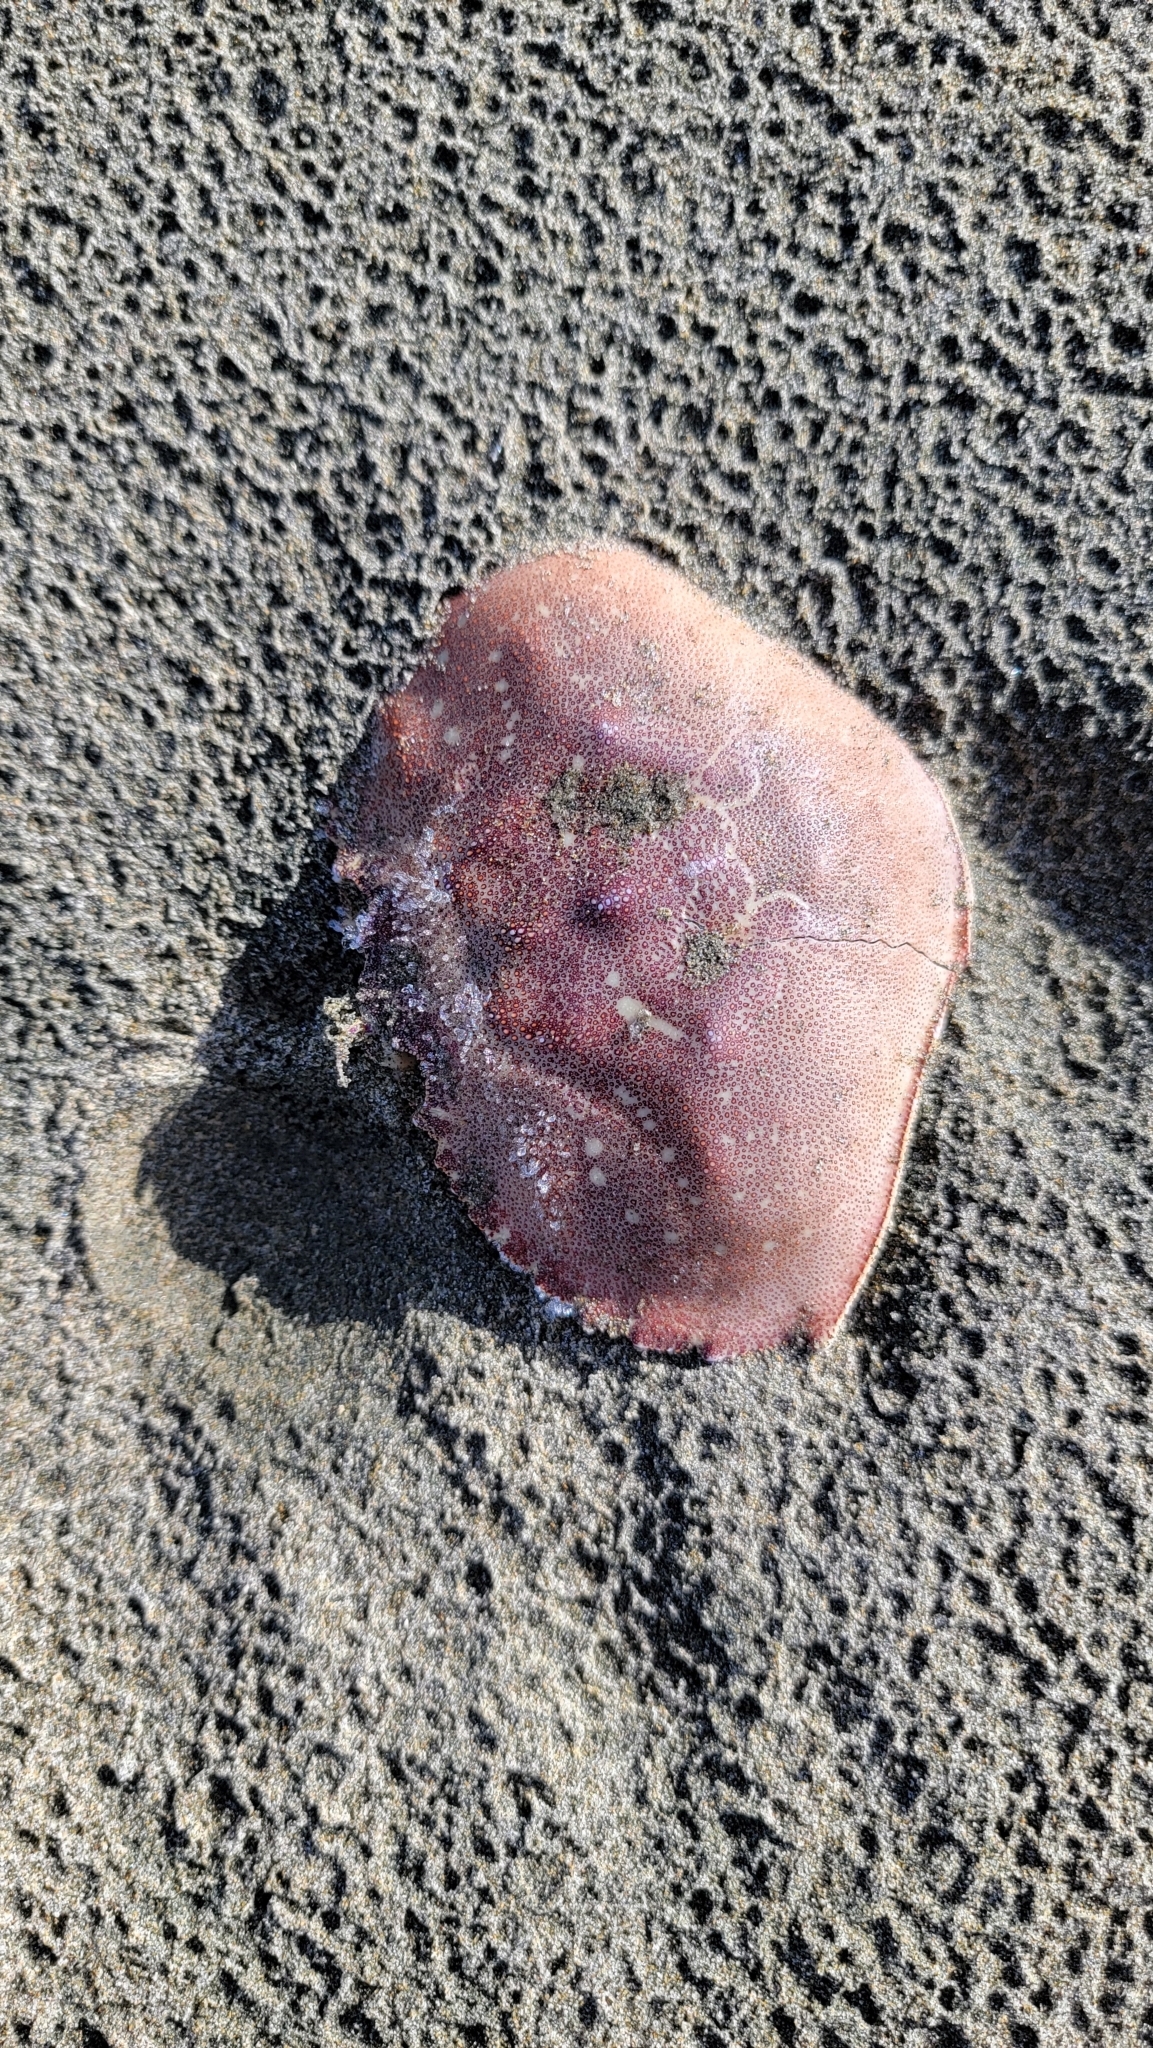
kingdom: Animalia
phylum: Arthropoda
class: Malacostraca
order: Decapoda
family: Cancridae
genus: Metacarcinus
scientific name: Metacarcinus magister
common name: Californian crab
